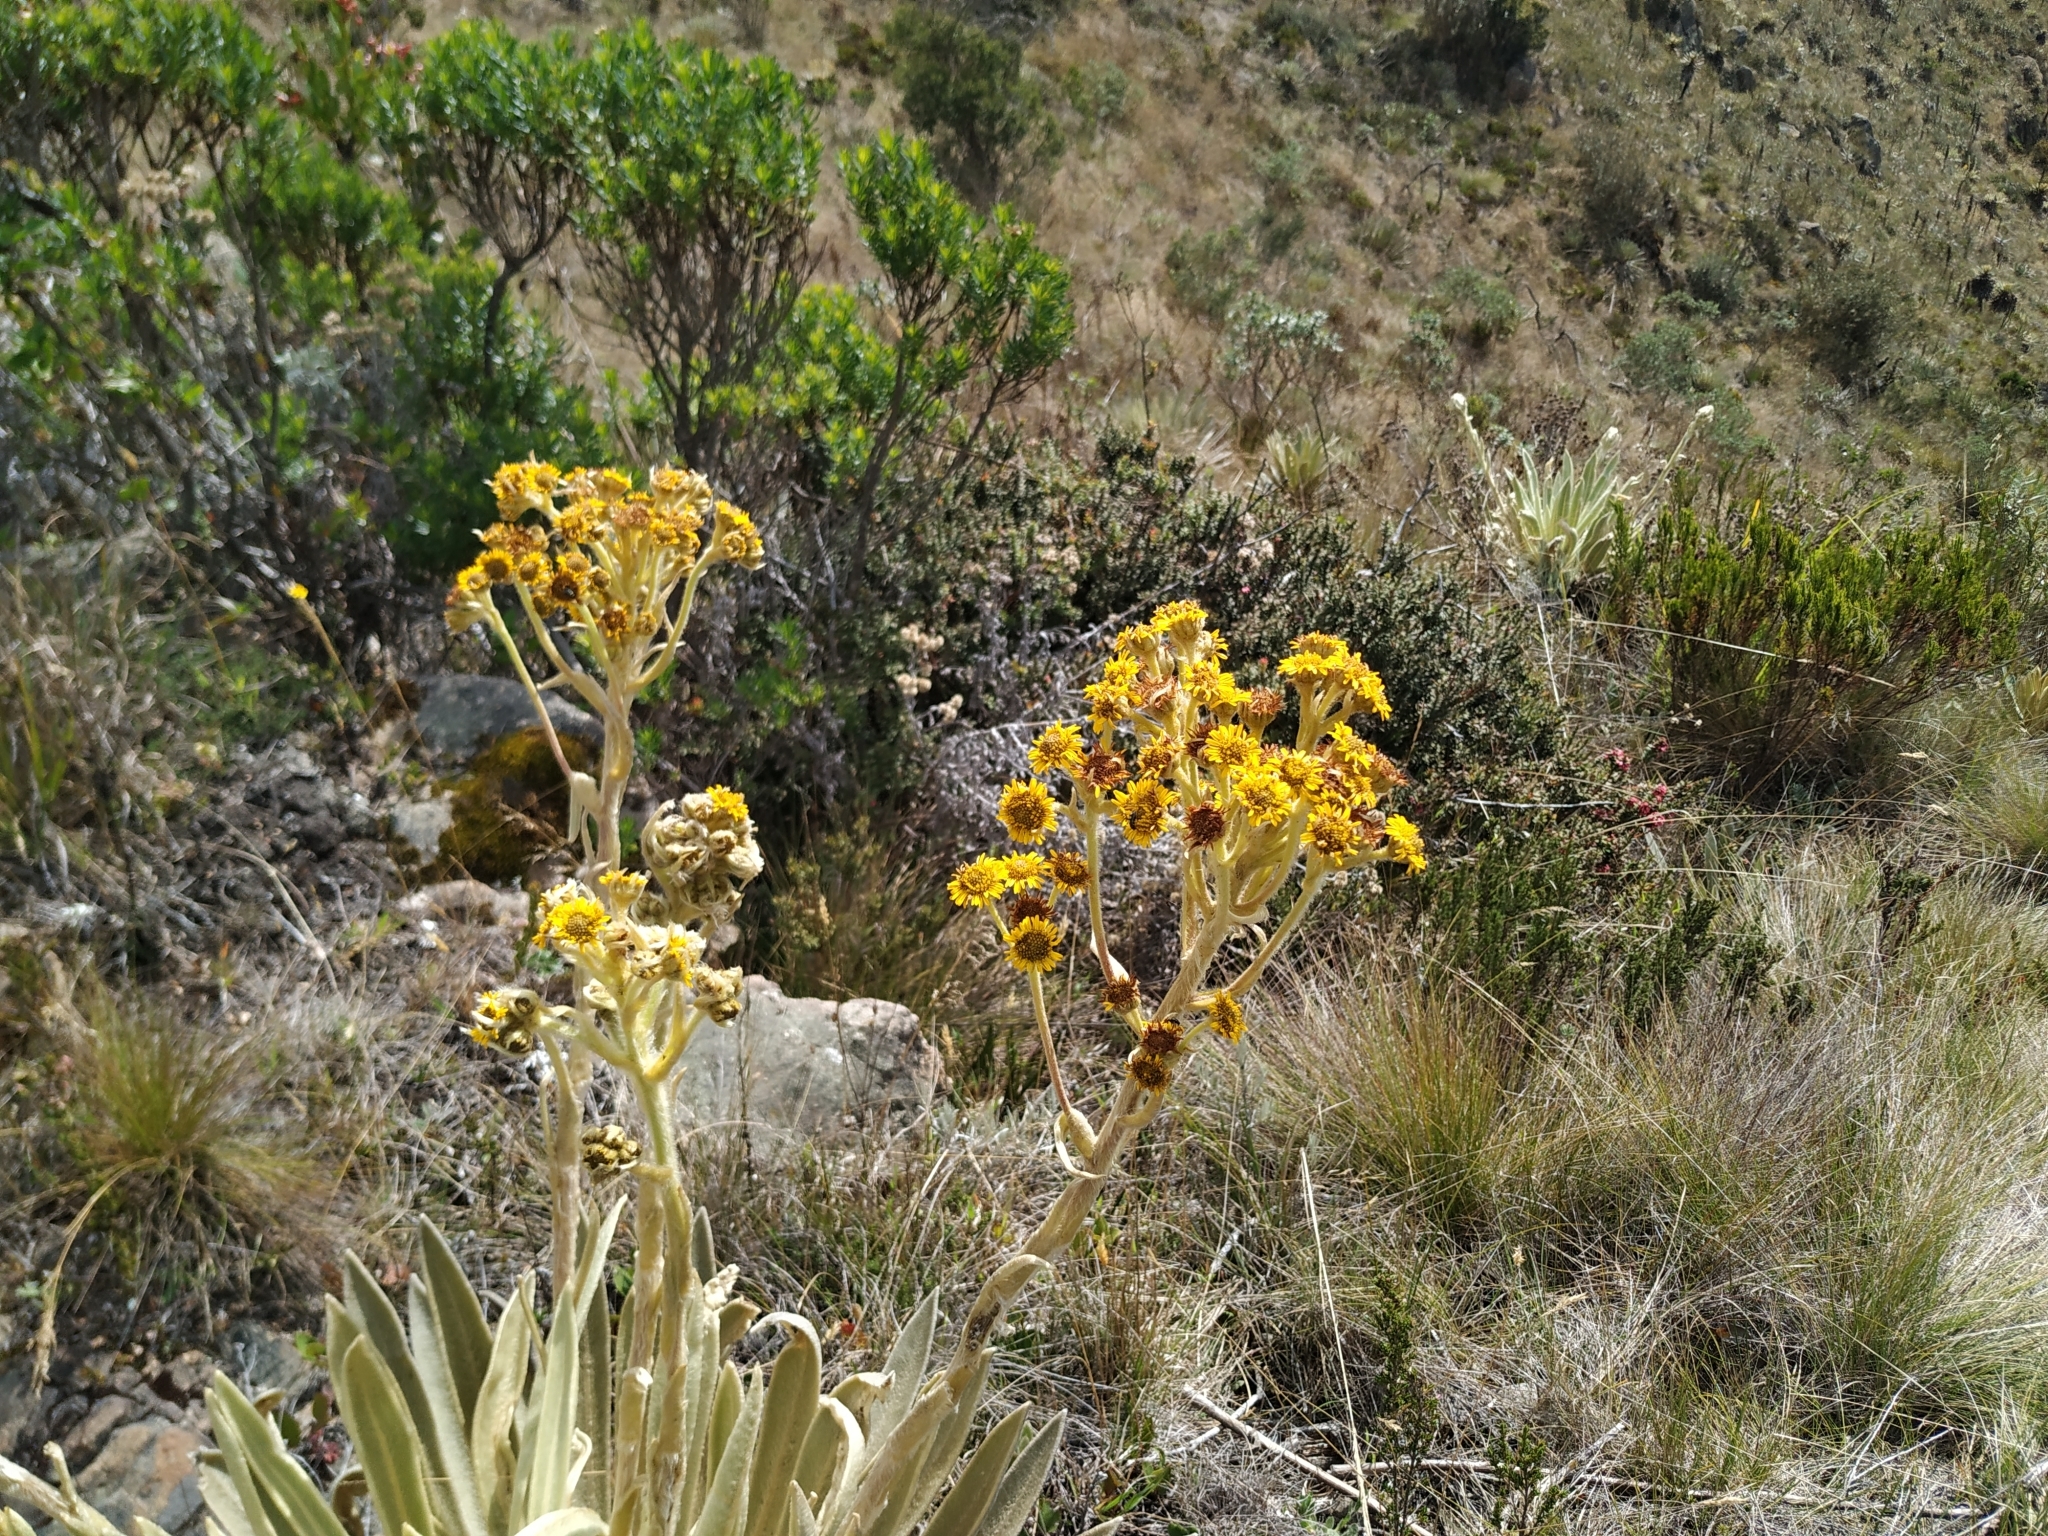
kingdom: Plantae
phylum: Tracheophyta
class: Magnoliopsida
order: Asterales
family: Asteraceae
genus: Espeletia
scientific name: Espeletia muiska
